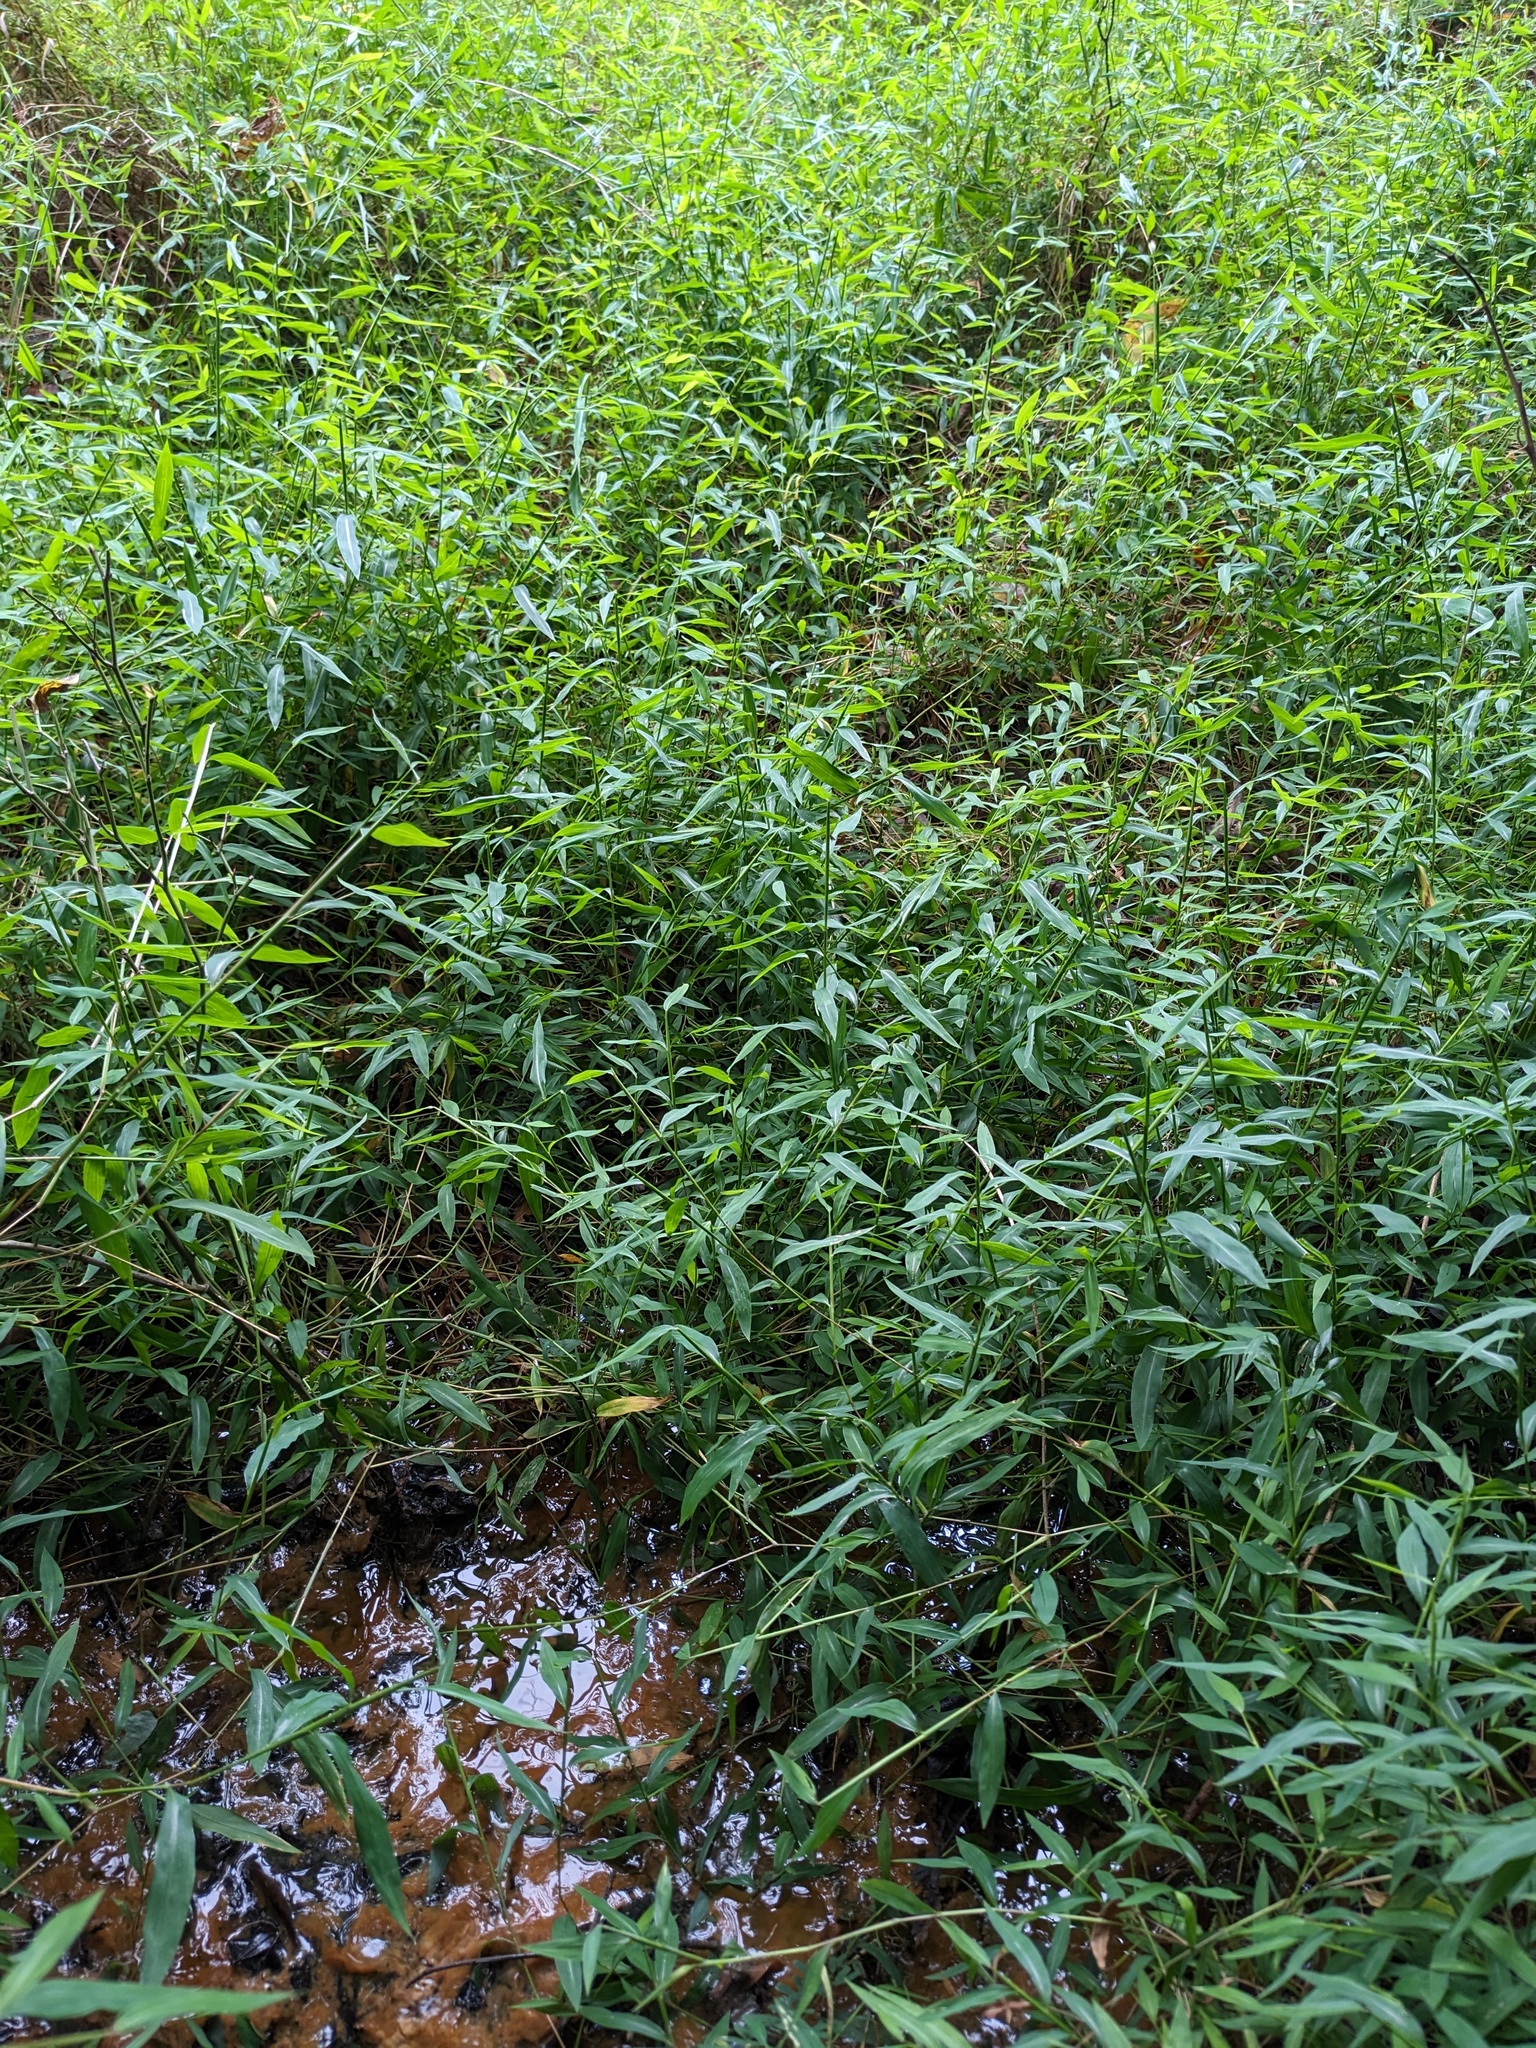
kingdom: Plantae
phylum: Tracheophyta
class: Liliopsida
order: Poales
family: Poaceae
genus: Microstegium
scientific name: Microstegium vimineum
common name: Japanese stiltgrass
